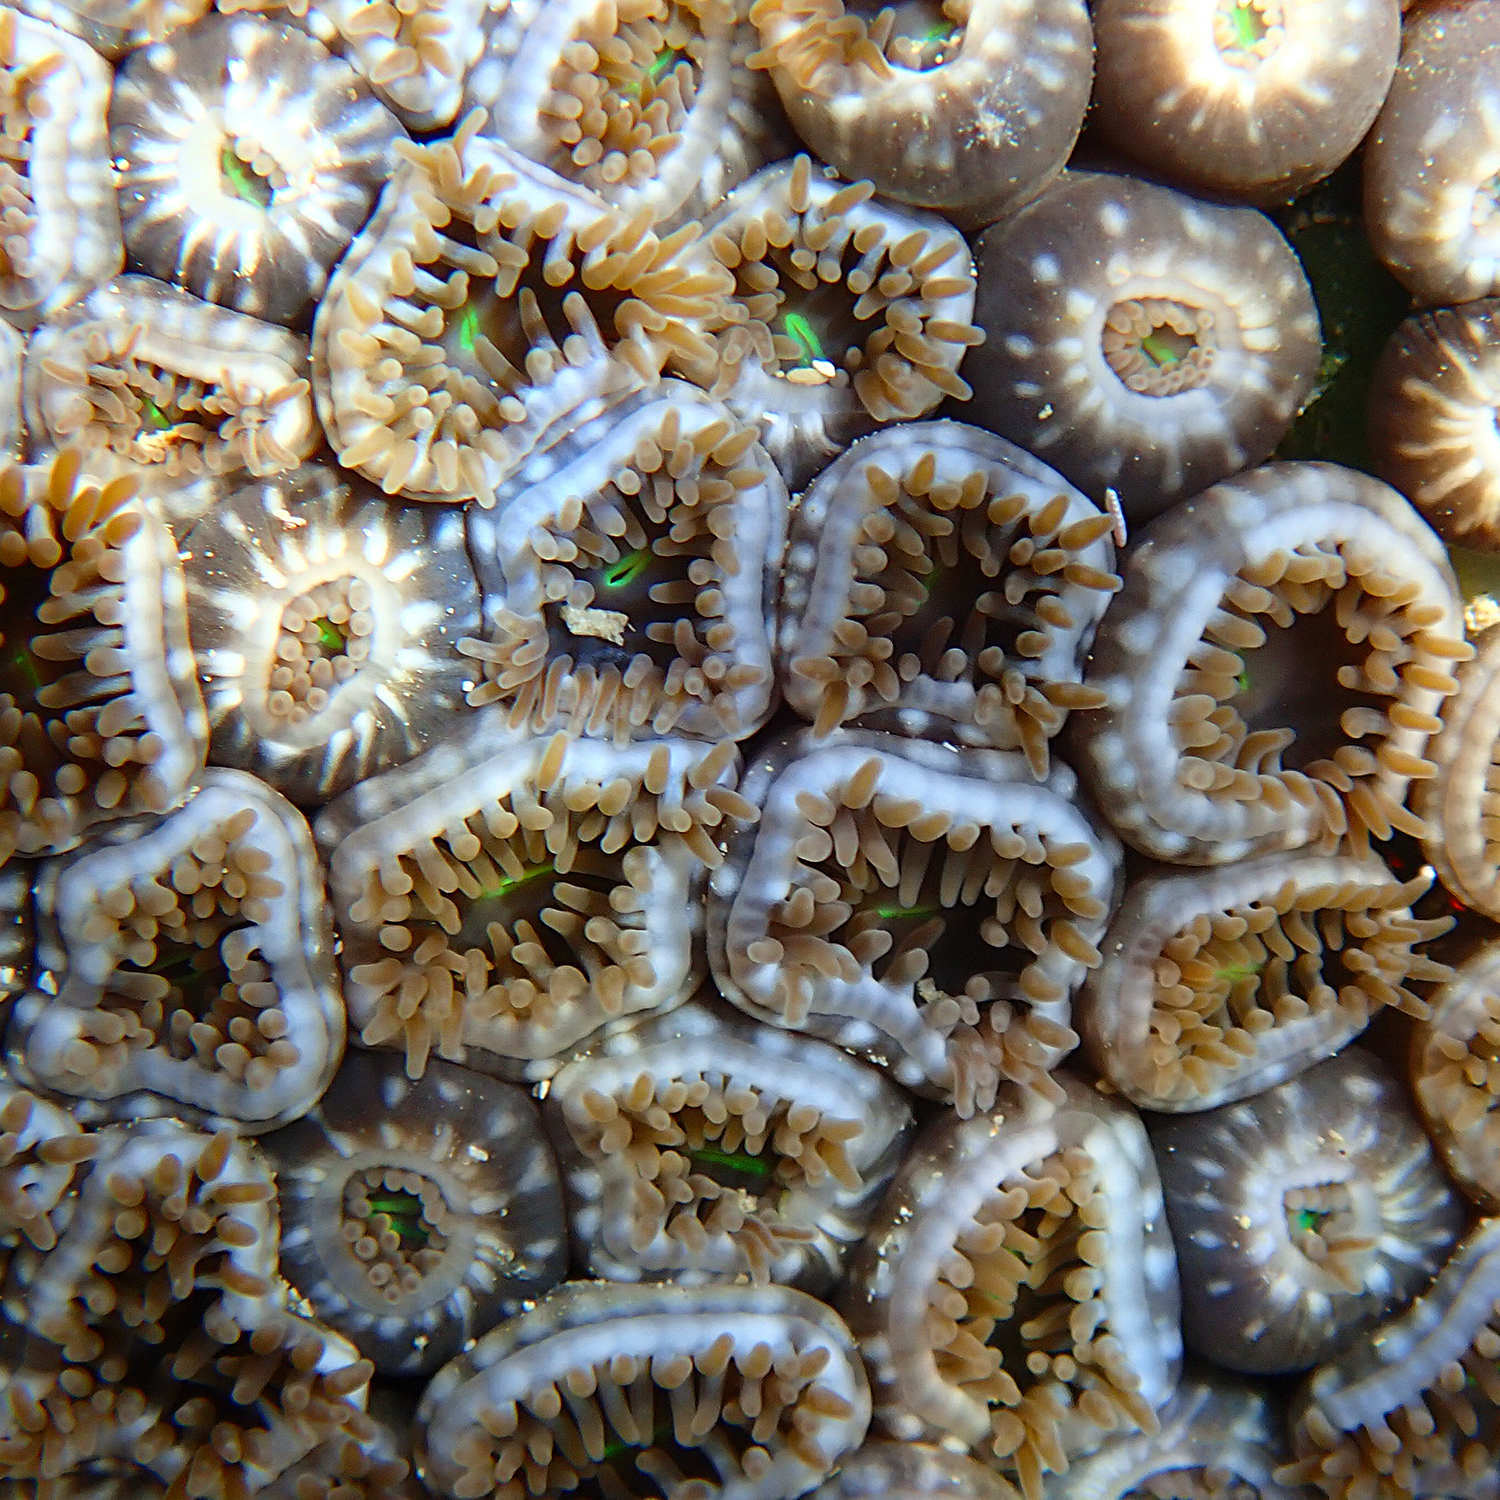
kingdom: Animalia
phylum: Cnidaria
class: Anthozoa
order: Zoantharia
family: Zoanthidae
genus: Zoanthus
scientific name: Zoanthus gigantus
